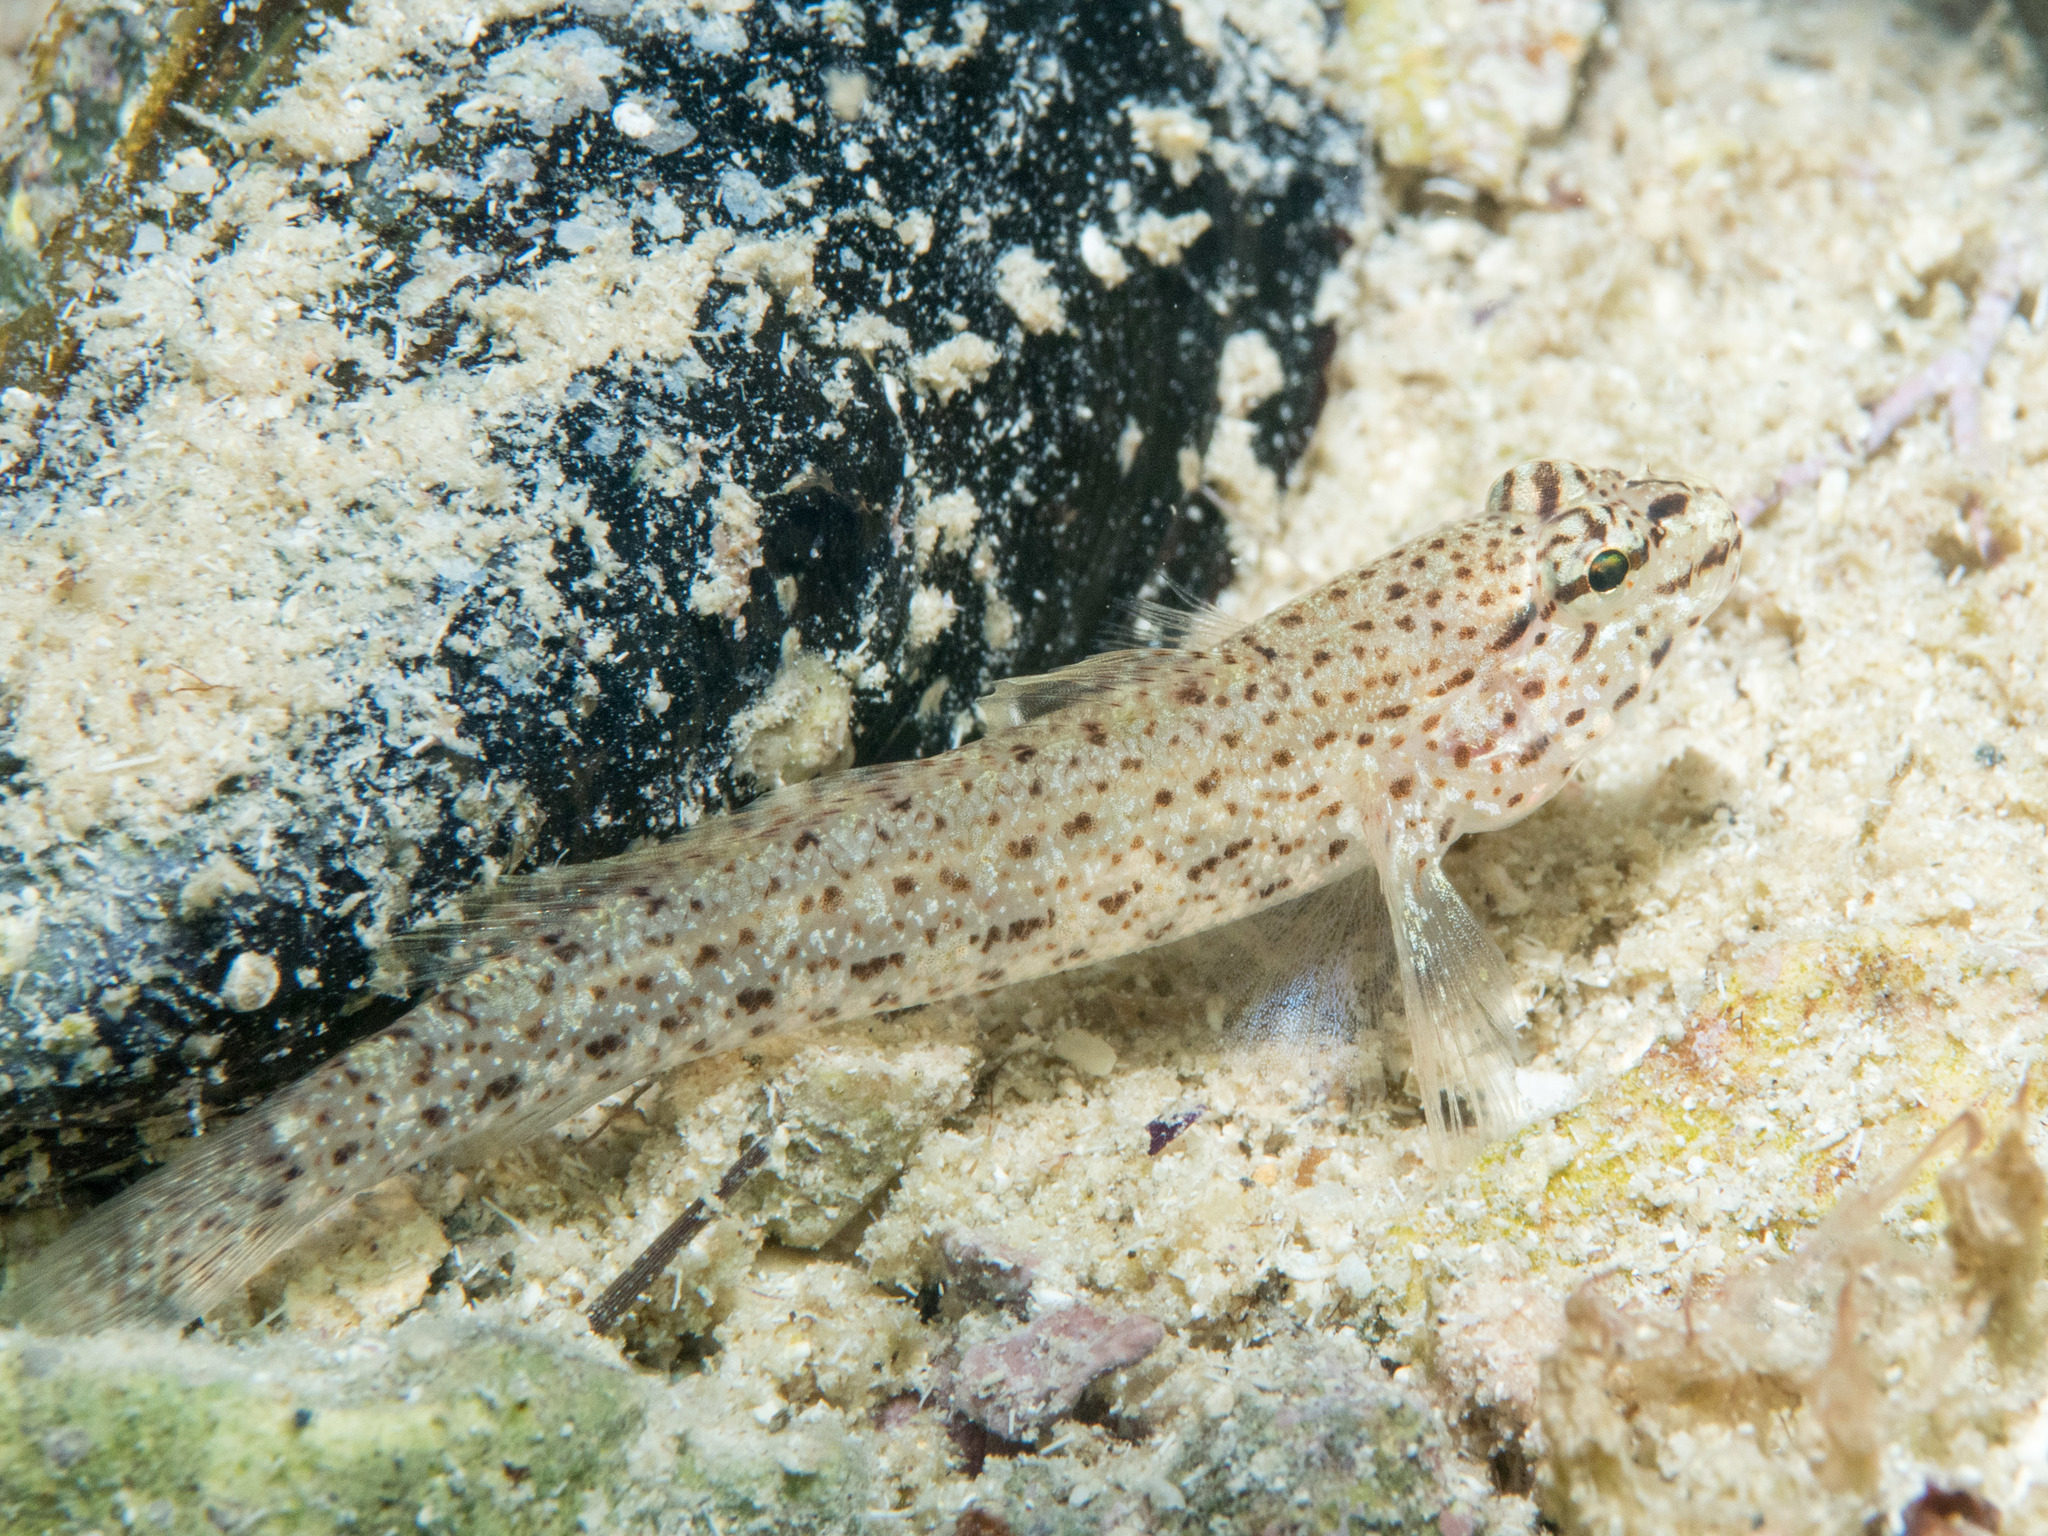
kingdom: Animalia
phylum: Chordata
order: Perciformes
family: Gobiidae
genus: Gobius
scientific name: Gobius incognitus
